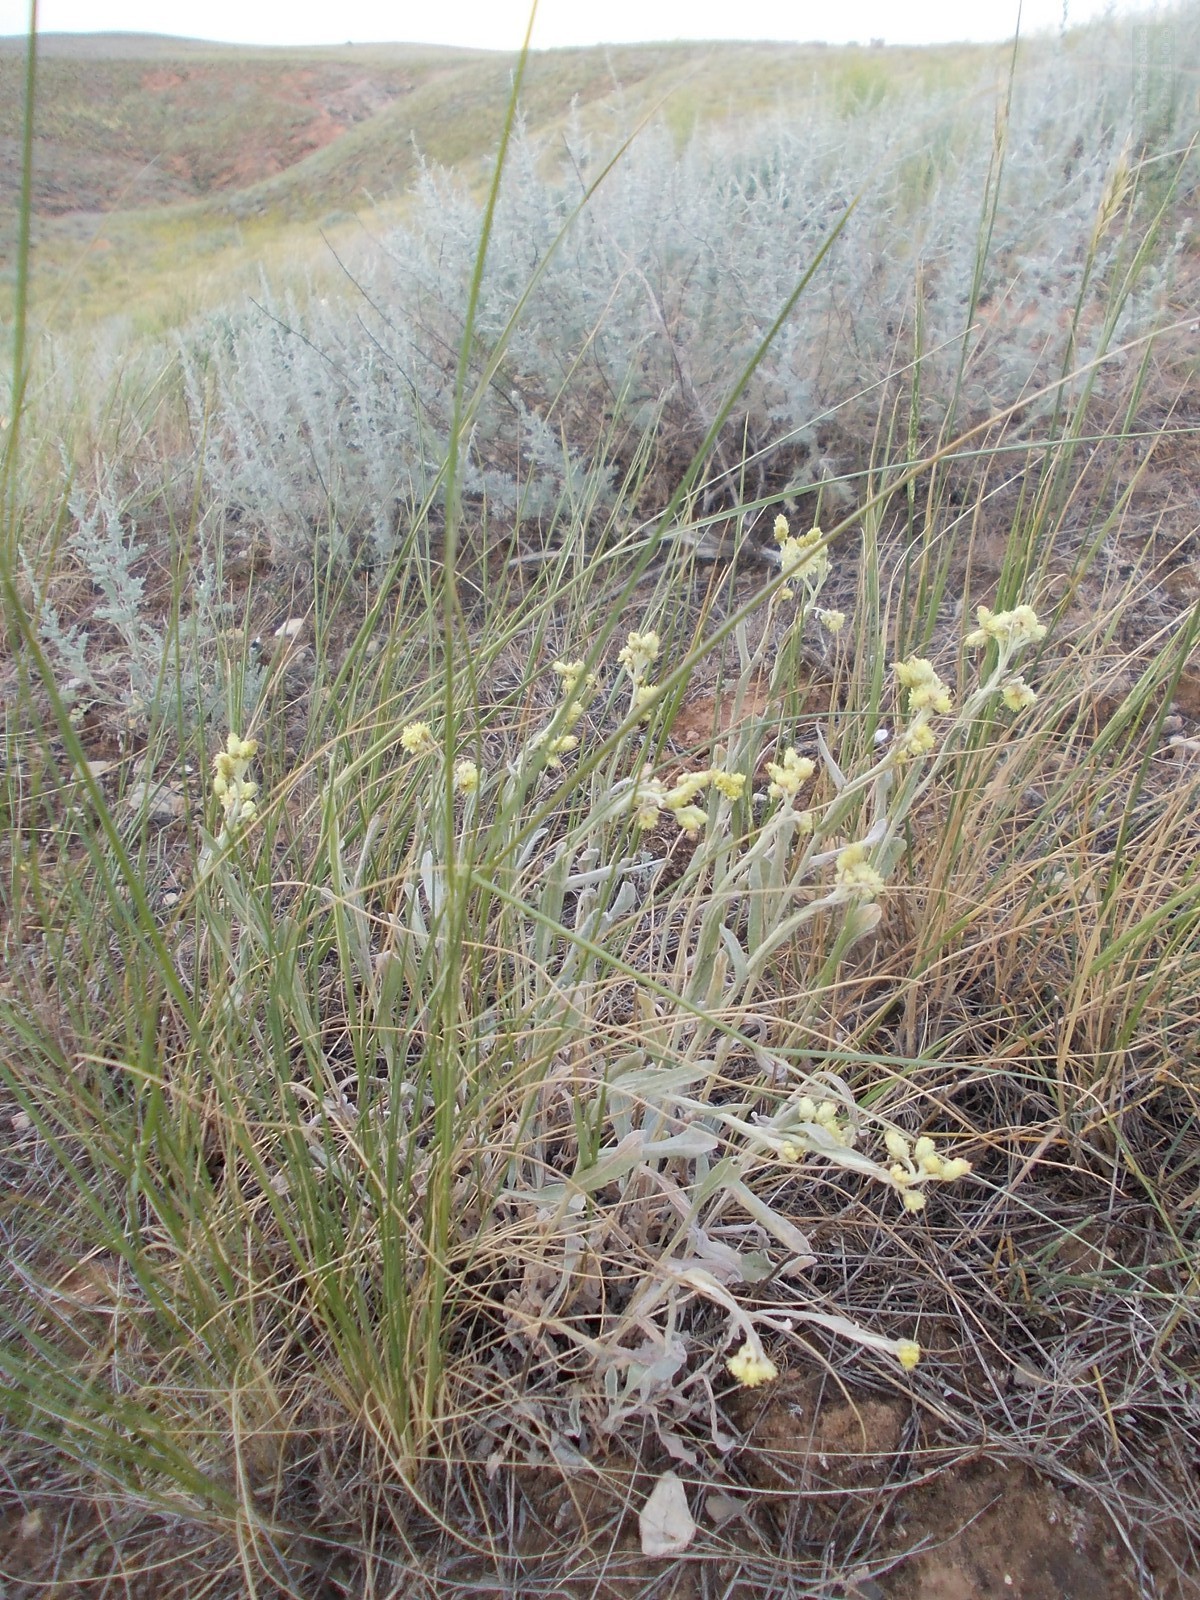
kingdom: Plantae
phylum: Tracheophyta
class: Magnoliopsida
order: Asterales
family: Asteraceae
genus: Helichrysum
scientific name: Helichrysum arenarium
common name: Strawflower
